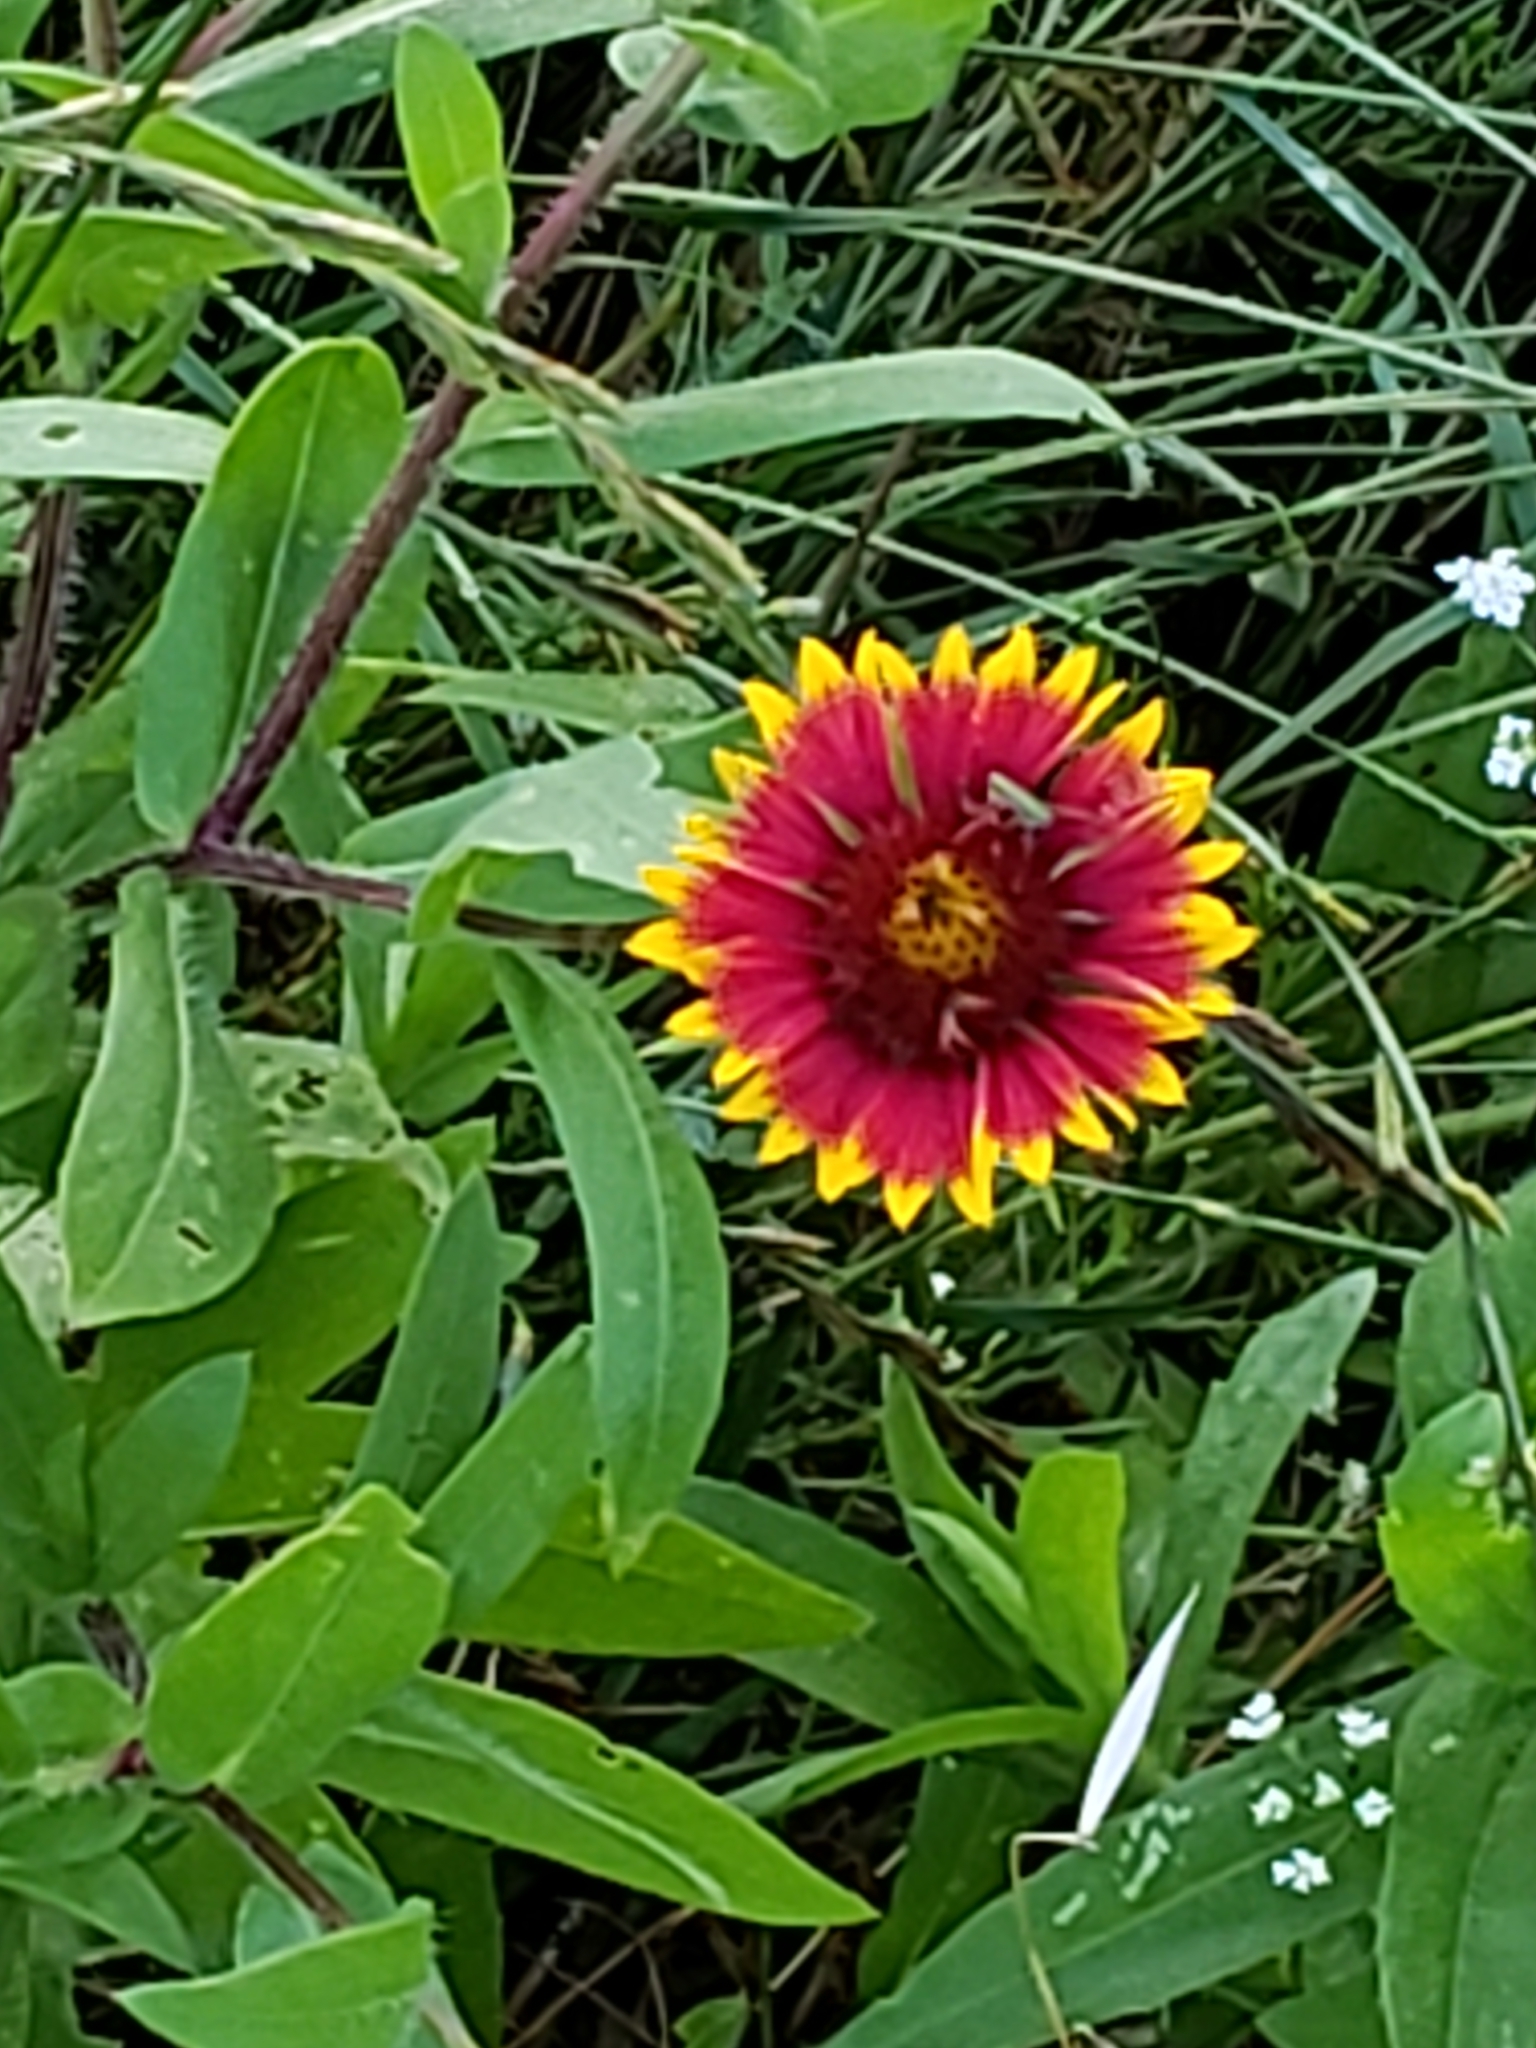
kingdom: Plantae
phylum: Tracheophyta
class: Magnoliopsida
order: Asterales
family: Asteraceae
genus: Gaillardia
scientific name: Gaillardia pulchella
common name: Firewheel
